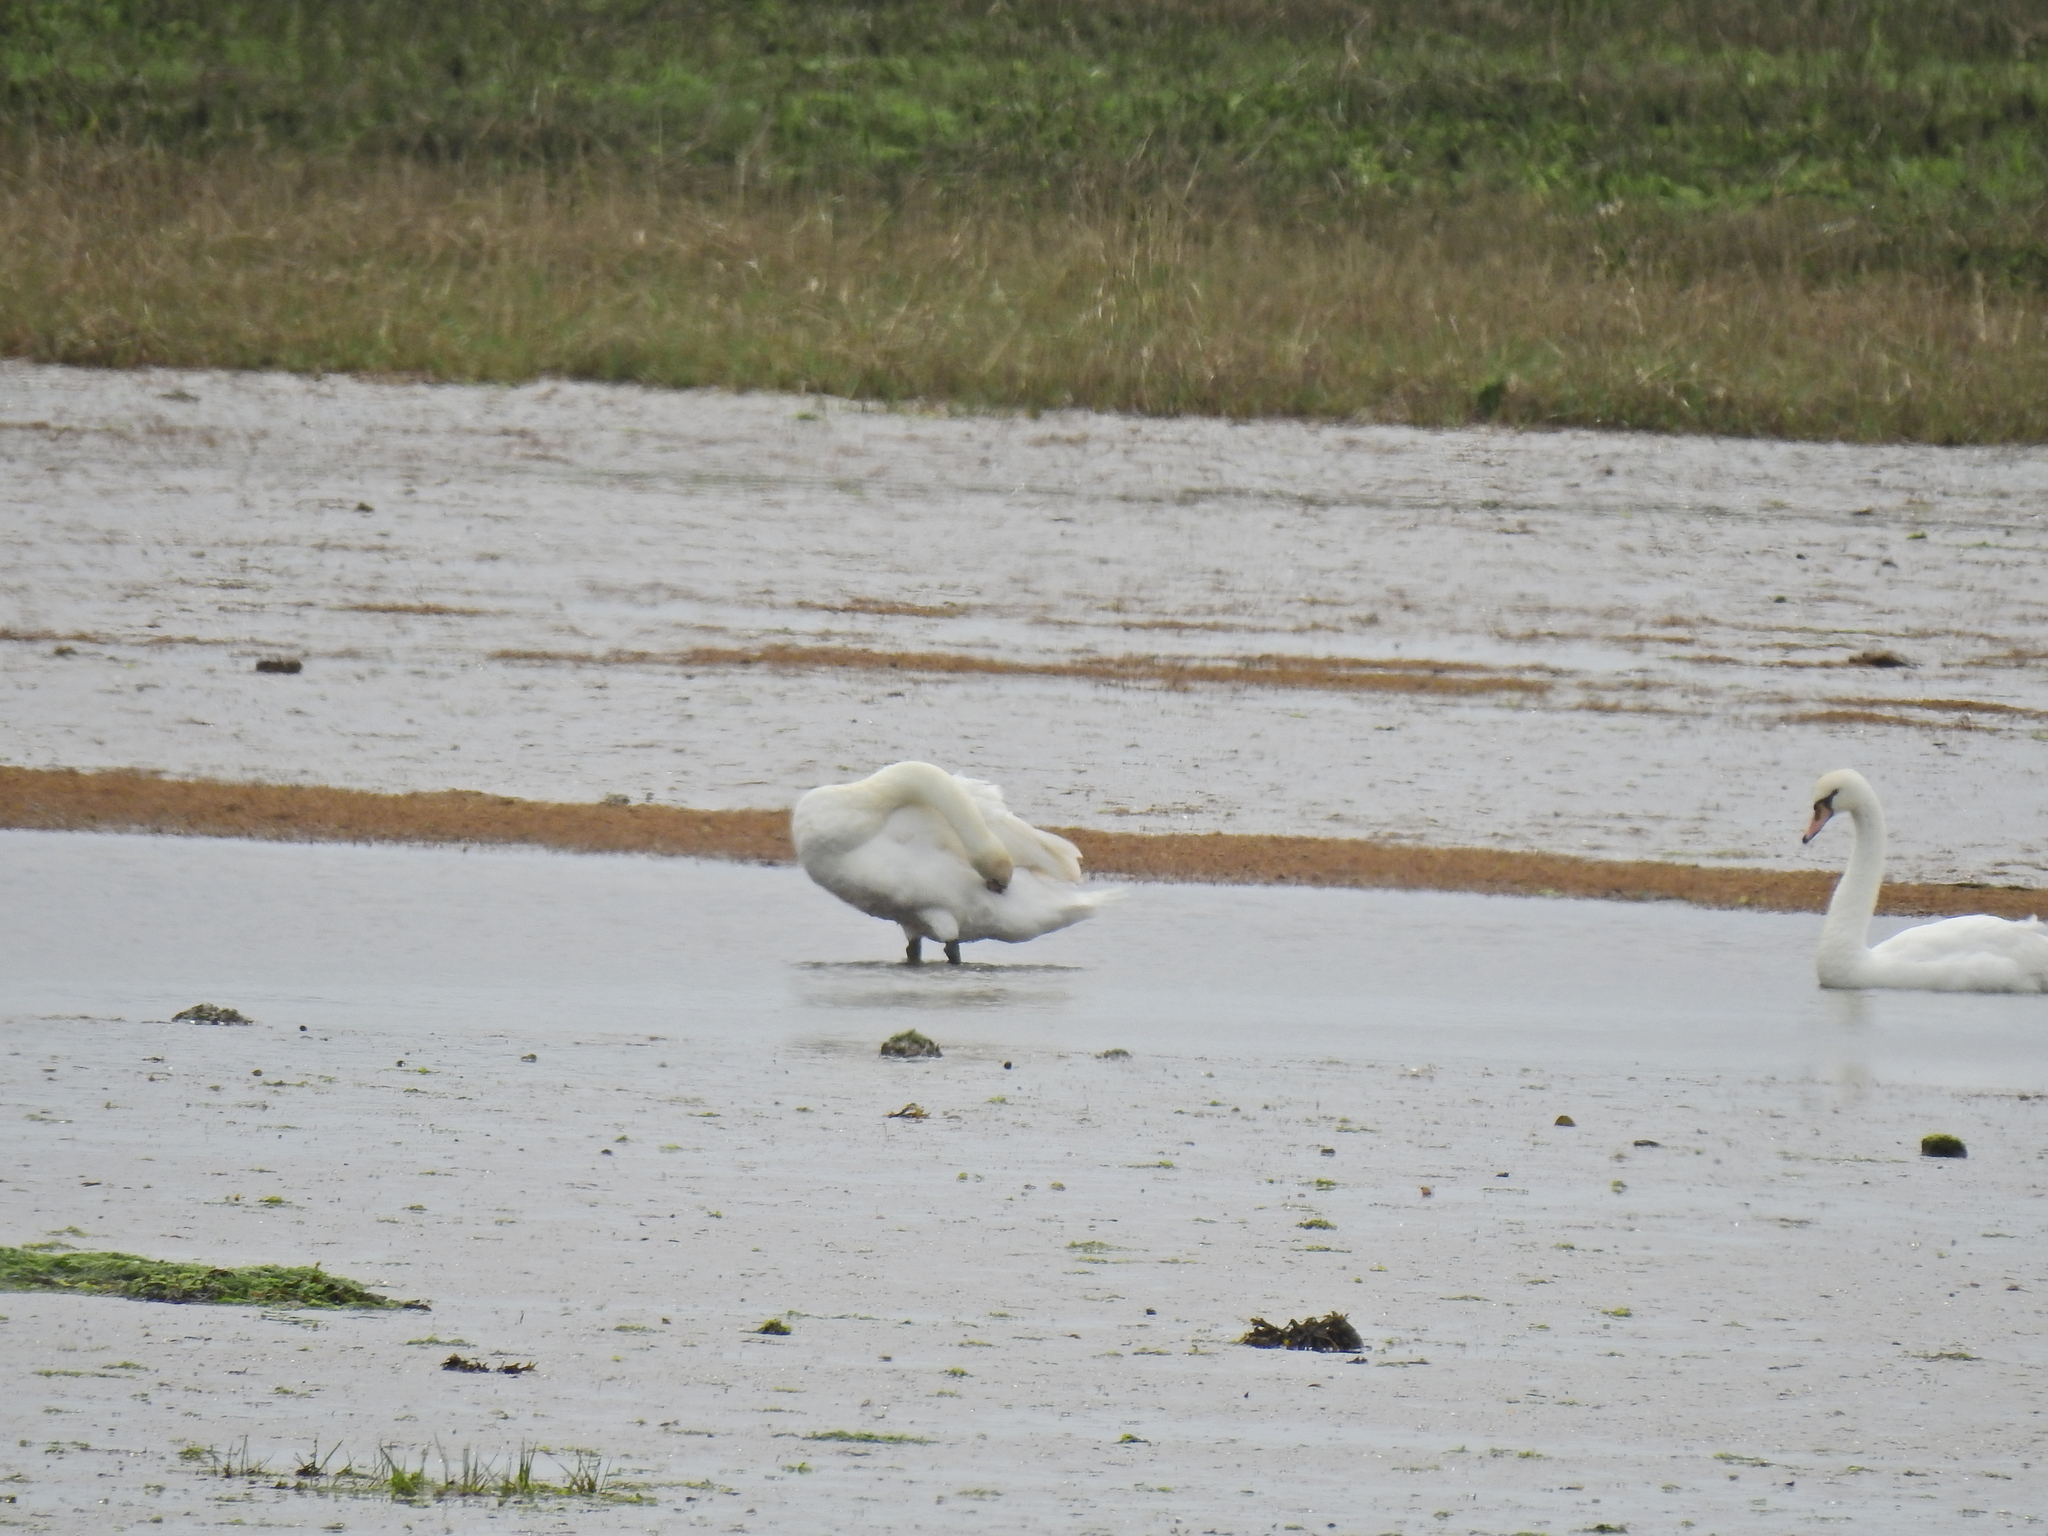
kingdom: Animalia
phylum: Chordata
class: Aves
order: Anseriformes
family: Anatidae
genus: Cygnus
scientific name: Cygnus olor
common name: Mute swan
